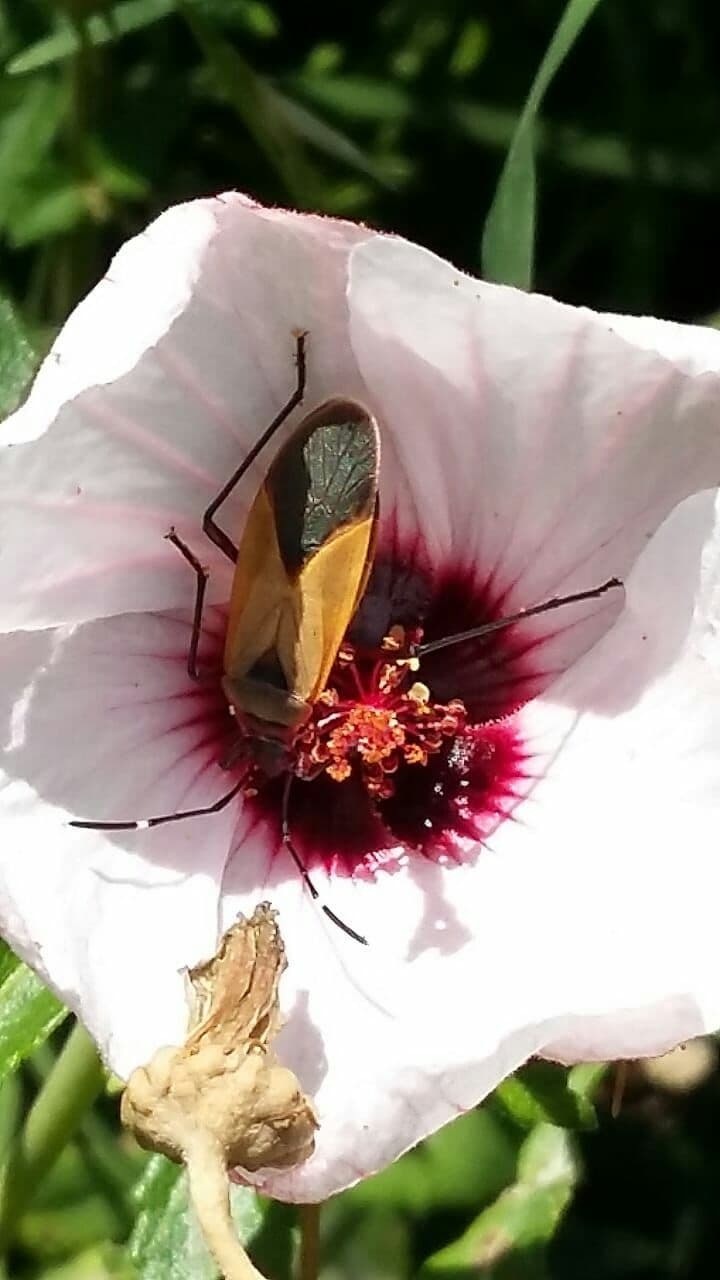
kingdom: Animalia
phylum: Arthropoda
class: Insecta
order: Hemiptera
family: Pyrrhocoridae
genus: Dysdercus
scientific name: Dysdercus
